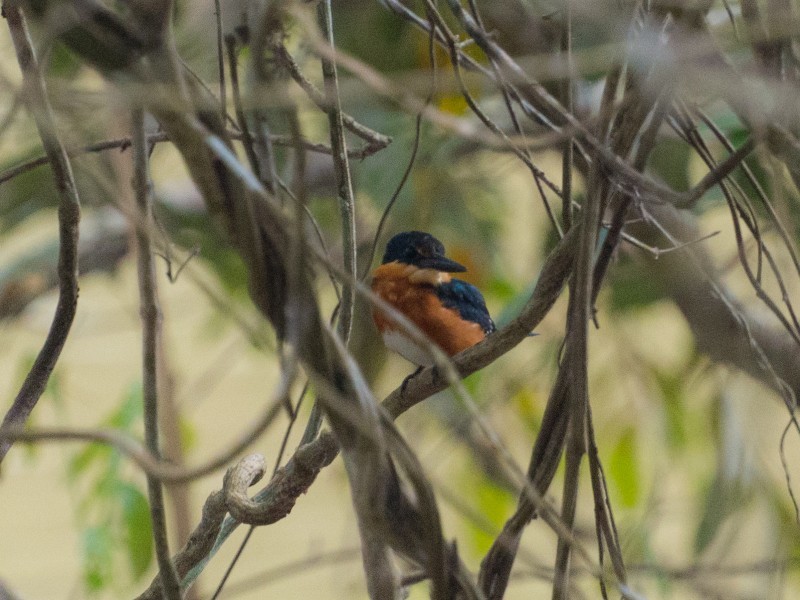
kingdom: Animalia
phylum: Chordata
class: Aves
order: Coraciiformes
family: Alcedinidae
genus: Chloroceryle
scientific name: Chloroceryle aenea
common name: American pygmy kingfisher
